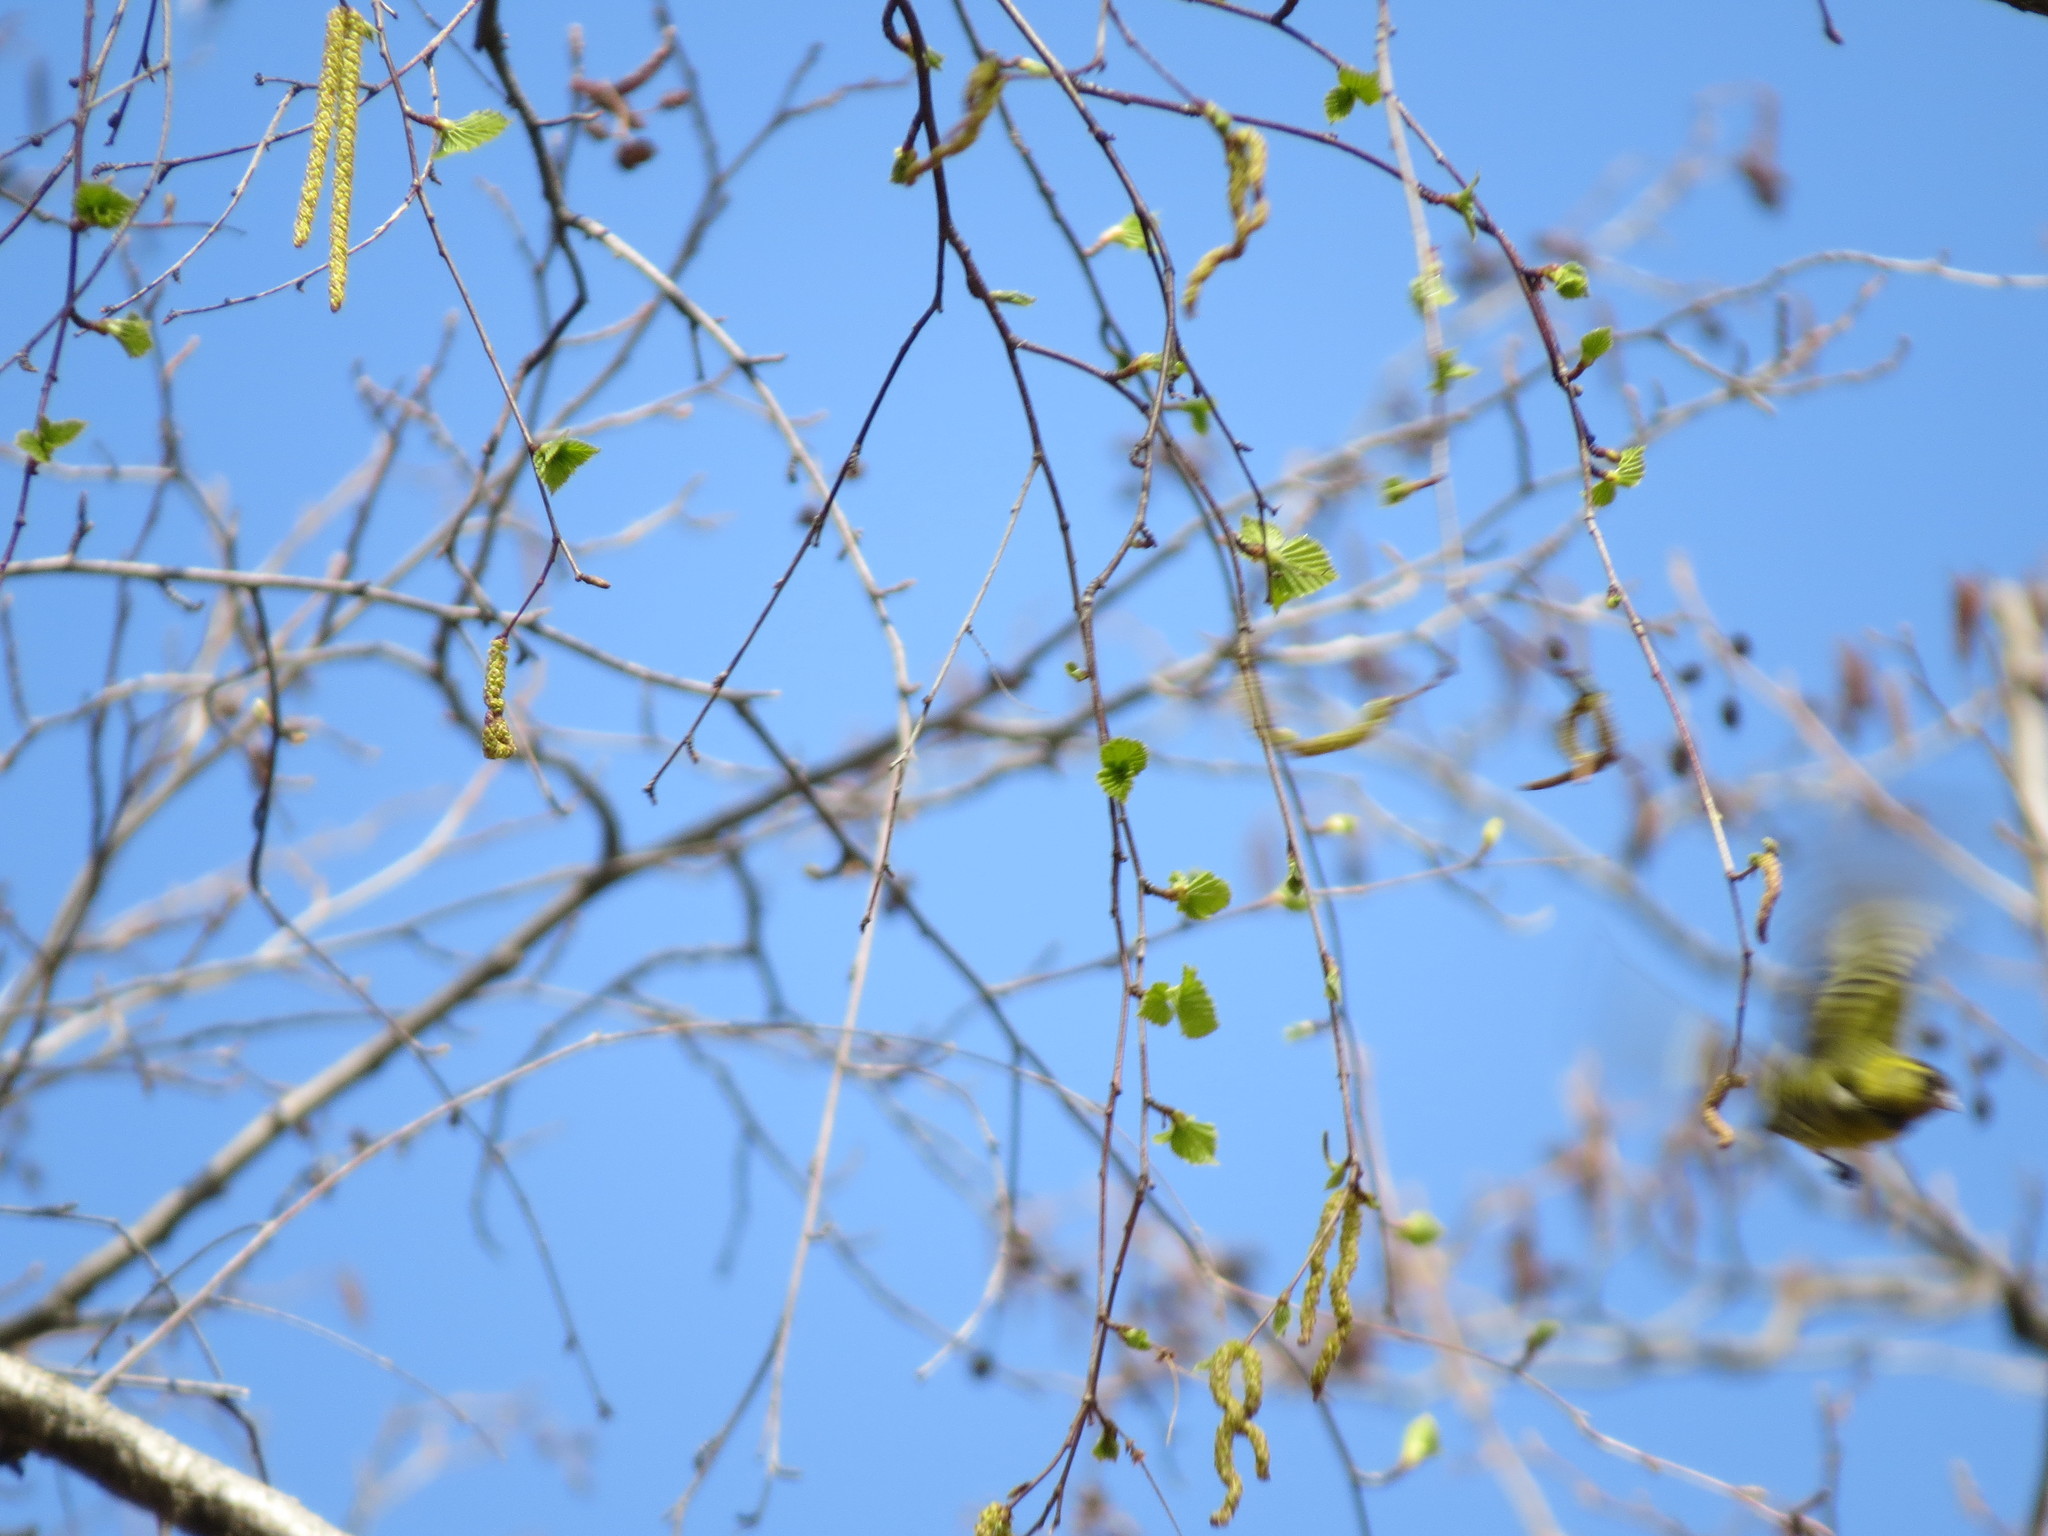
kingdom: Animalia
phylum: Chordata
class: Aves
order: Passeriformes
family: Fringillidae
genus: Spinus
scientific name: Spinus spinus
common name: Eurasian siskin
